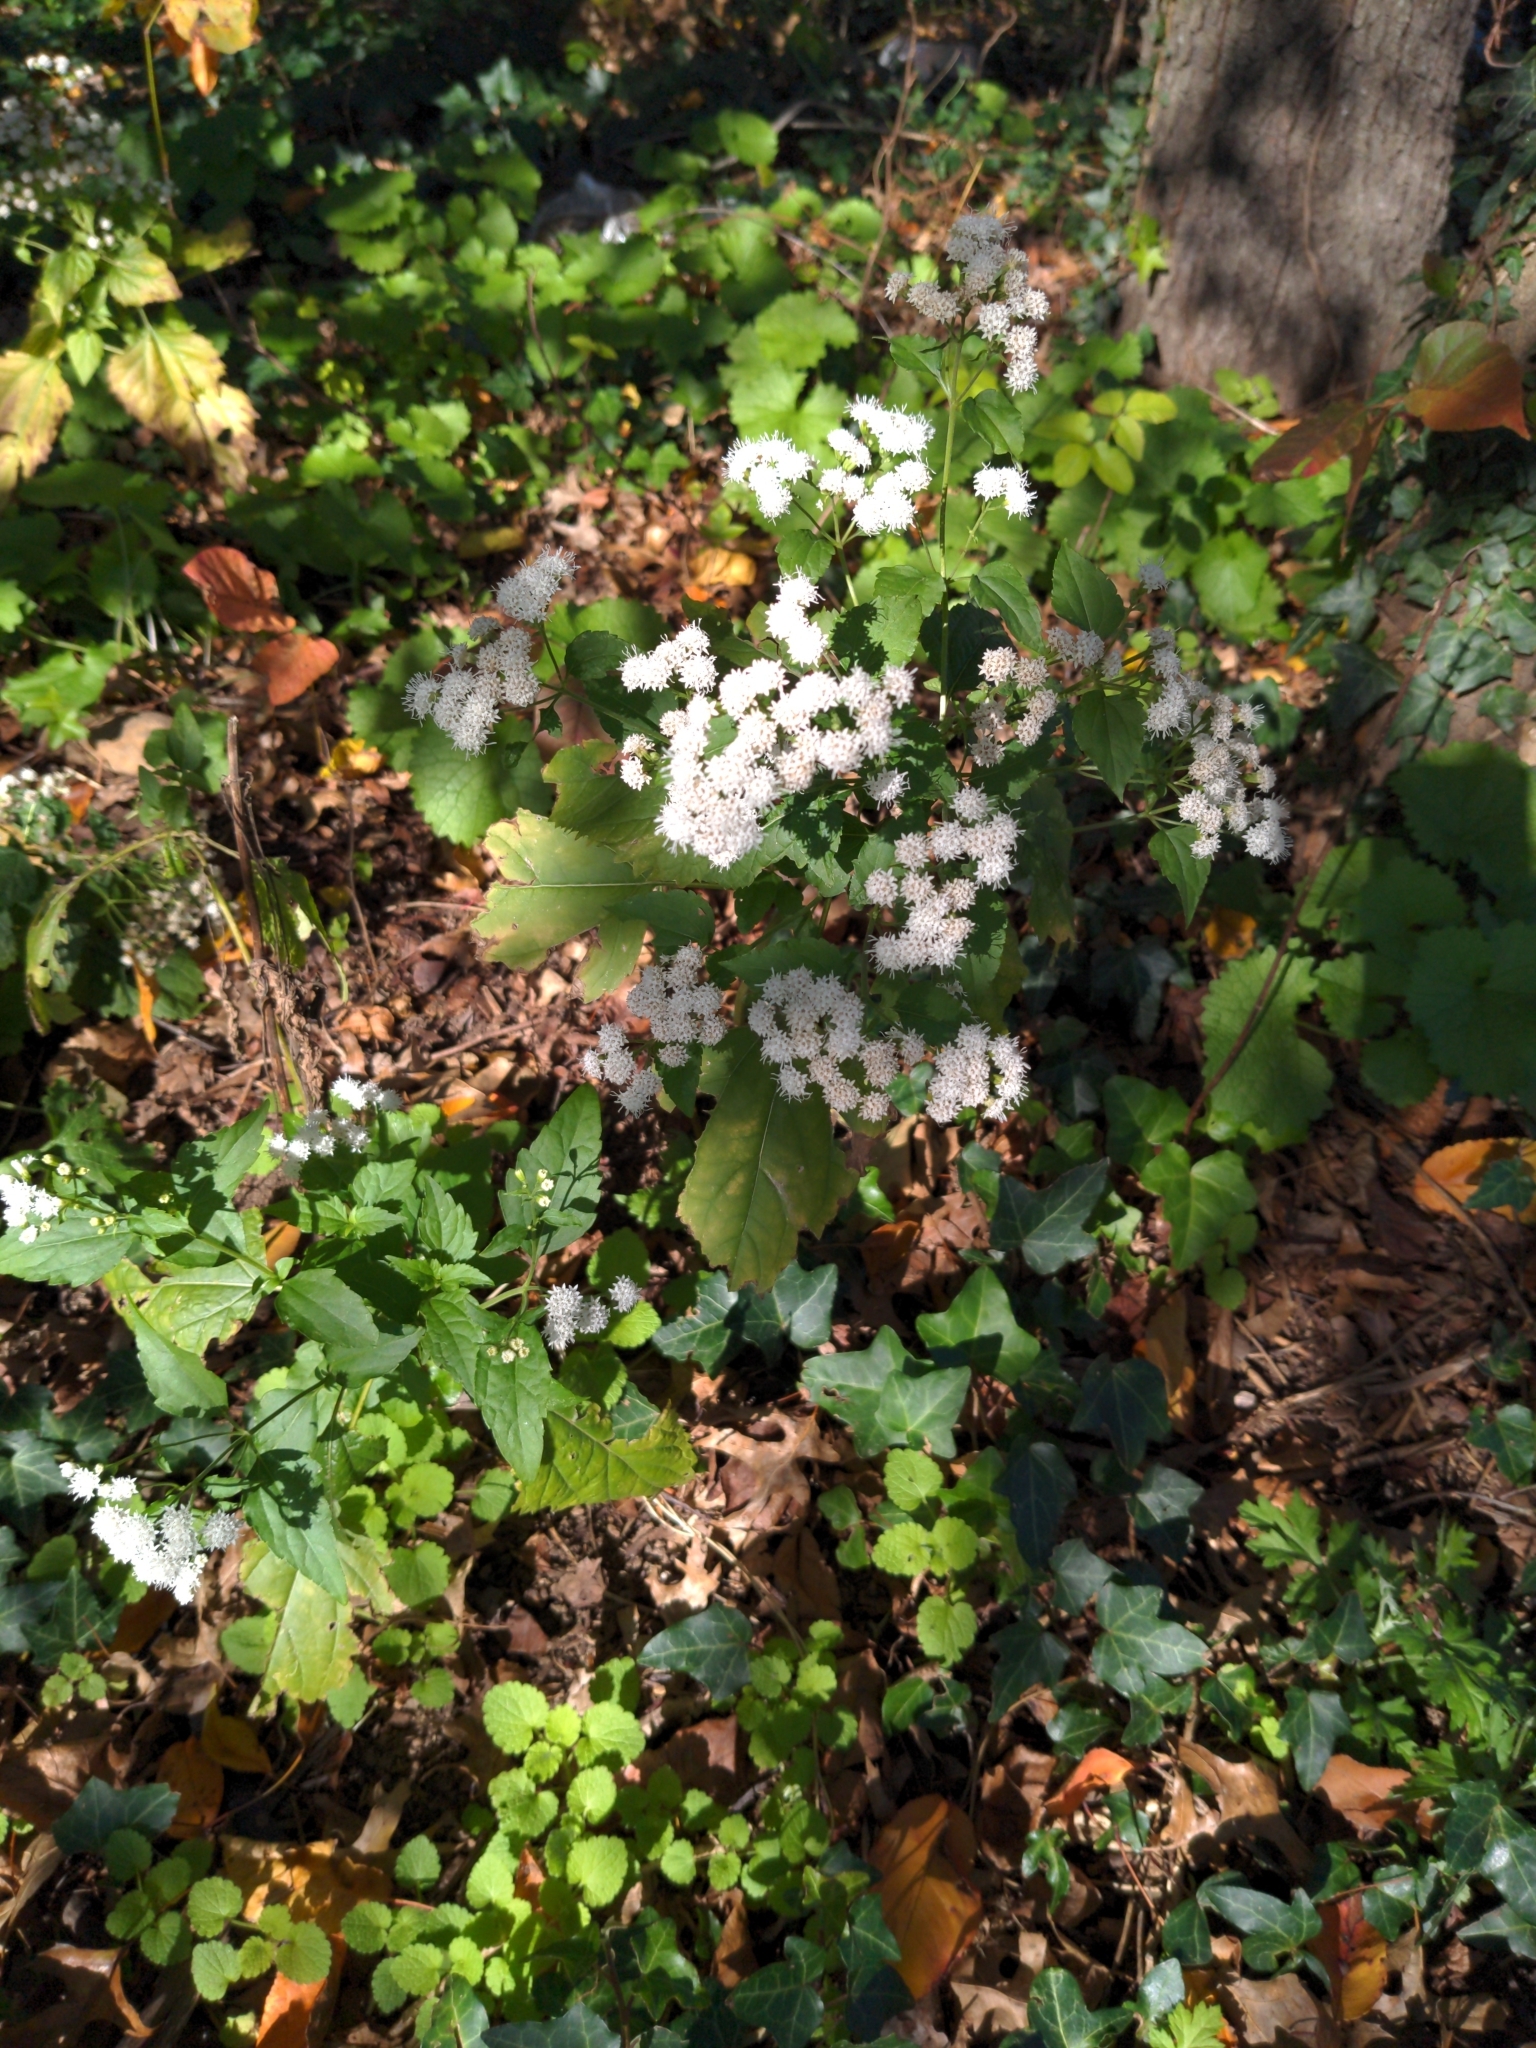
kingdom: Plantae
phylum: Tracheophyta
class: Magnoliopsida
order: Asterales
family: Asteraceae
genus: Ageratina
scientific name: Ageratina altissima
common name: White snakeroot
